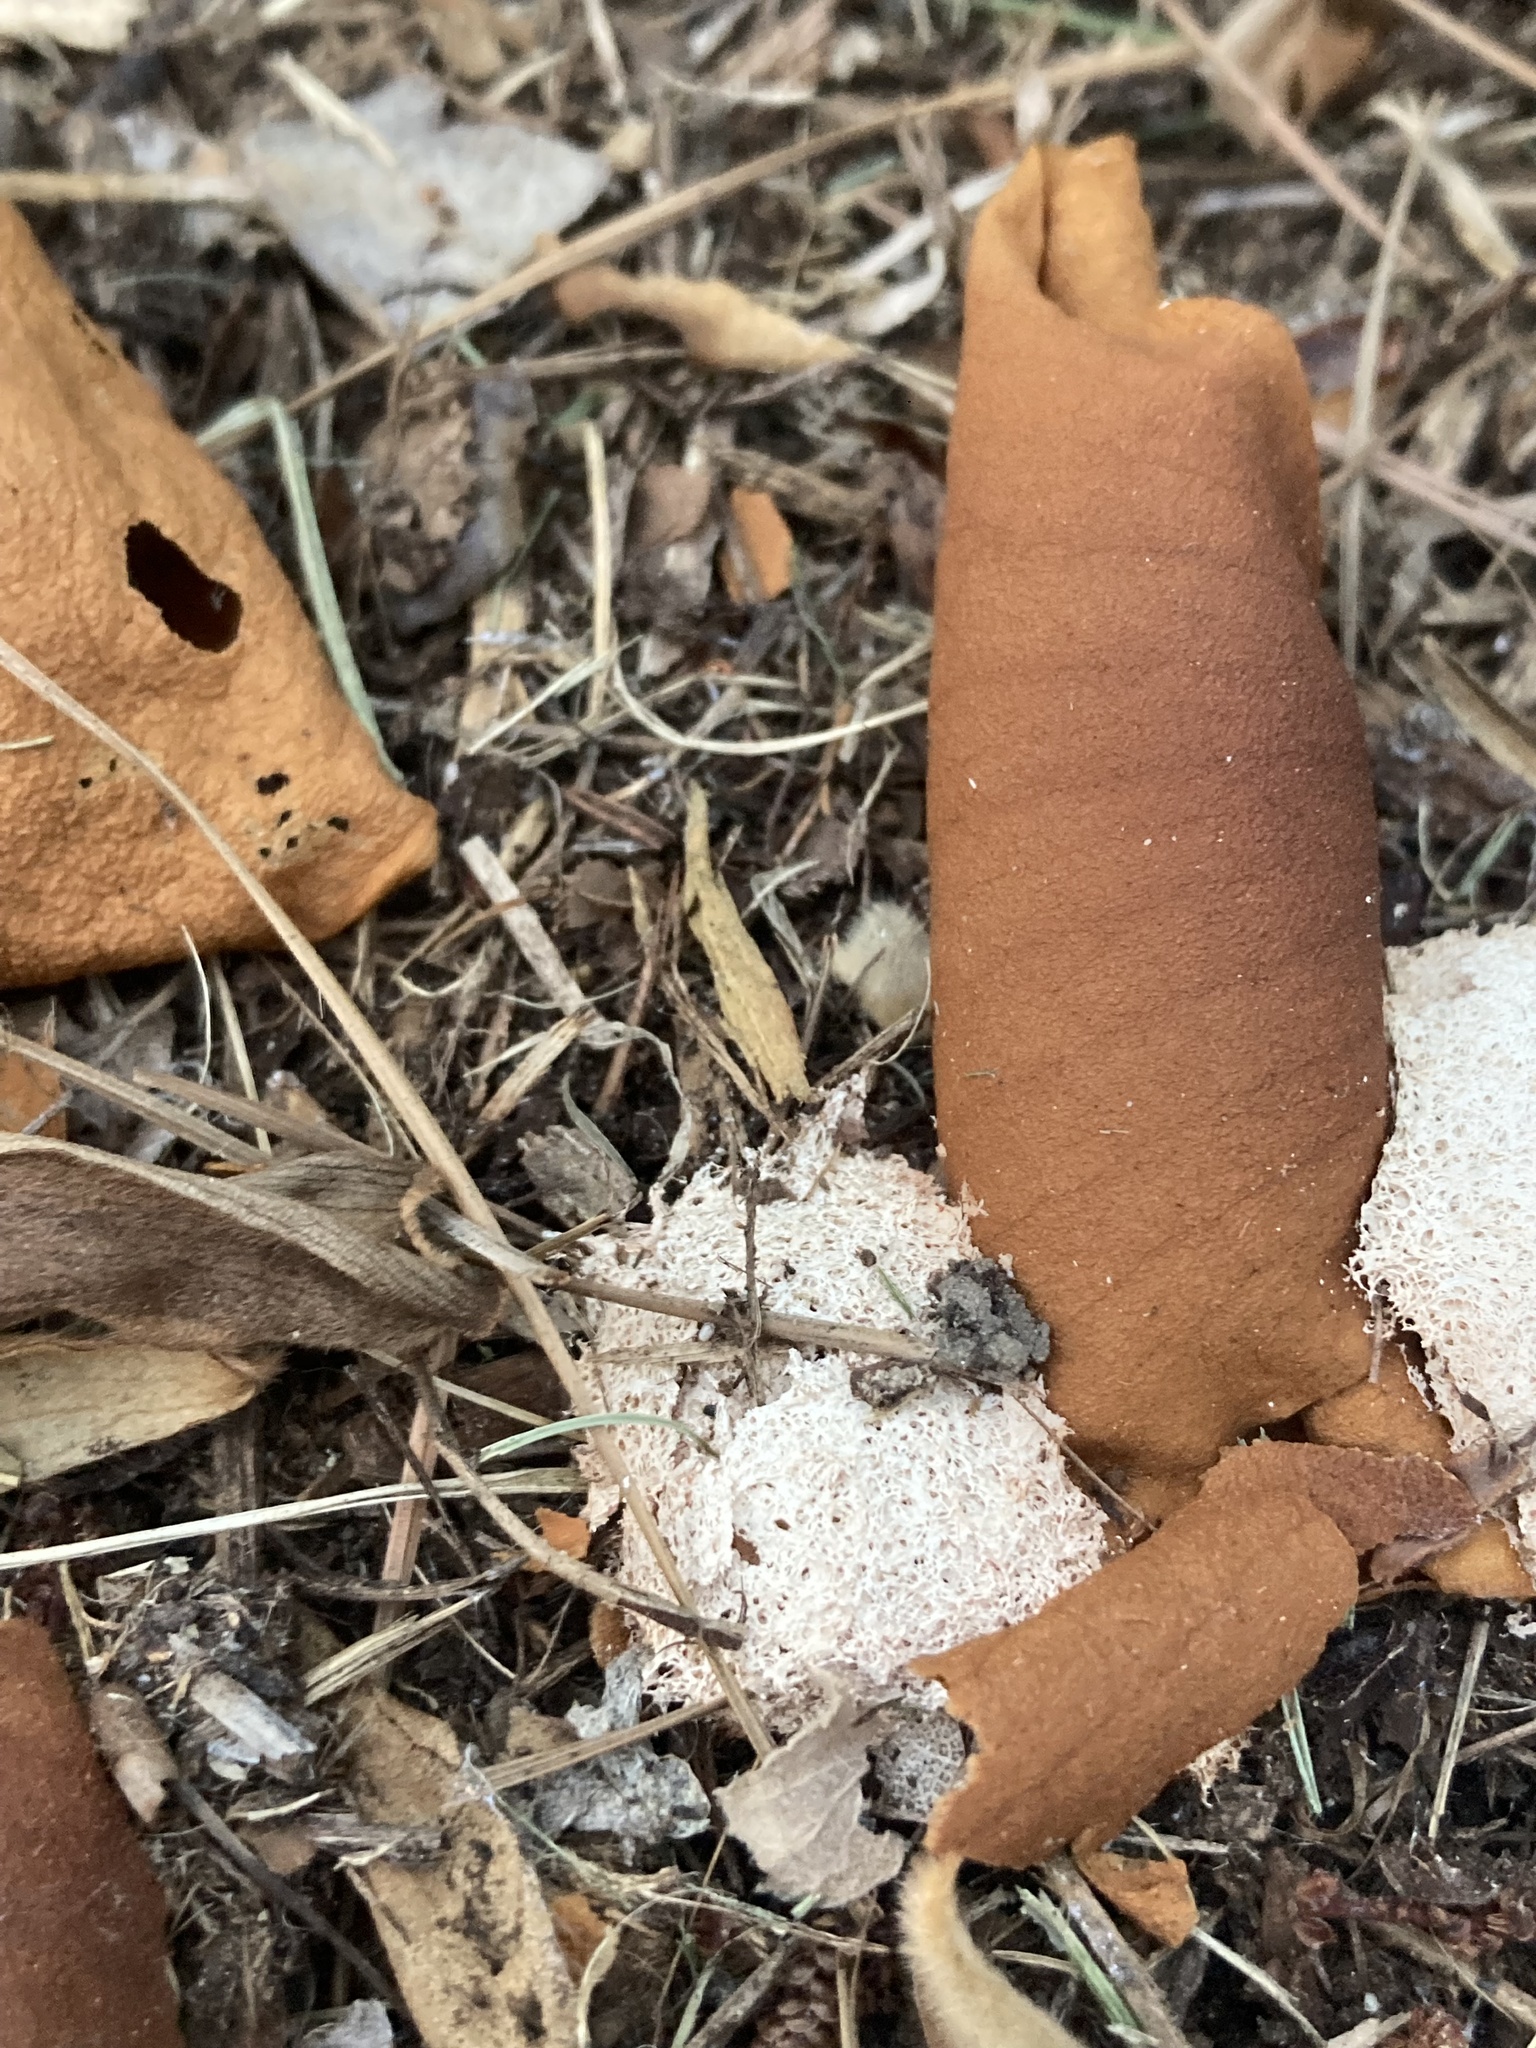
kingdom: Protozoa
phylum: Mycetozoa
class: Myxomycetes
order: Physarales
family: Physaraceae
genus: Fuligo
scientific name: Fuligo septica
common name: Dog vomit slime mold
